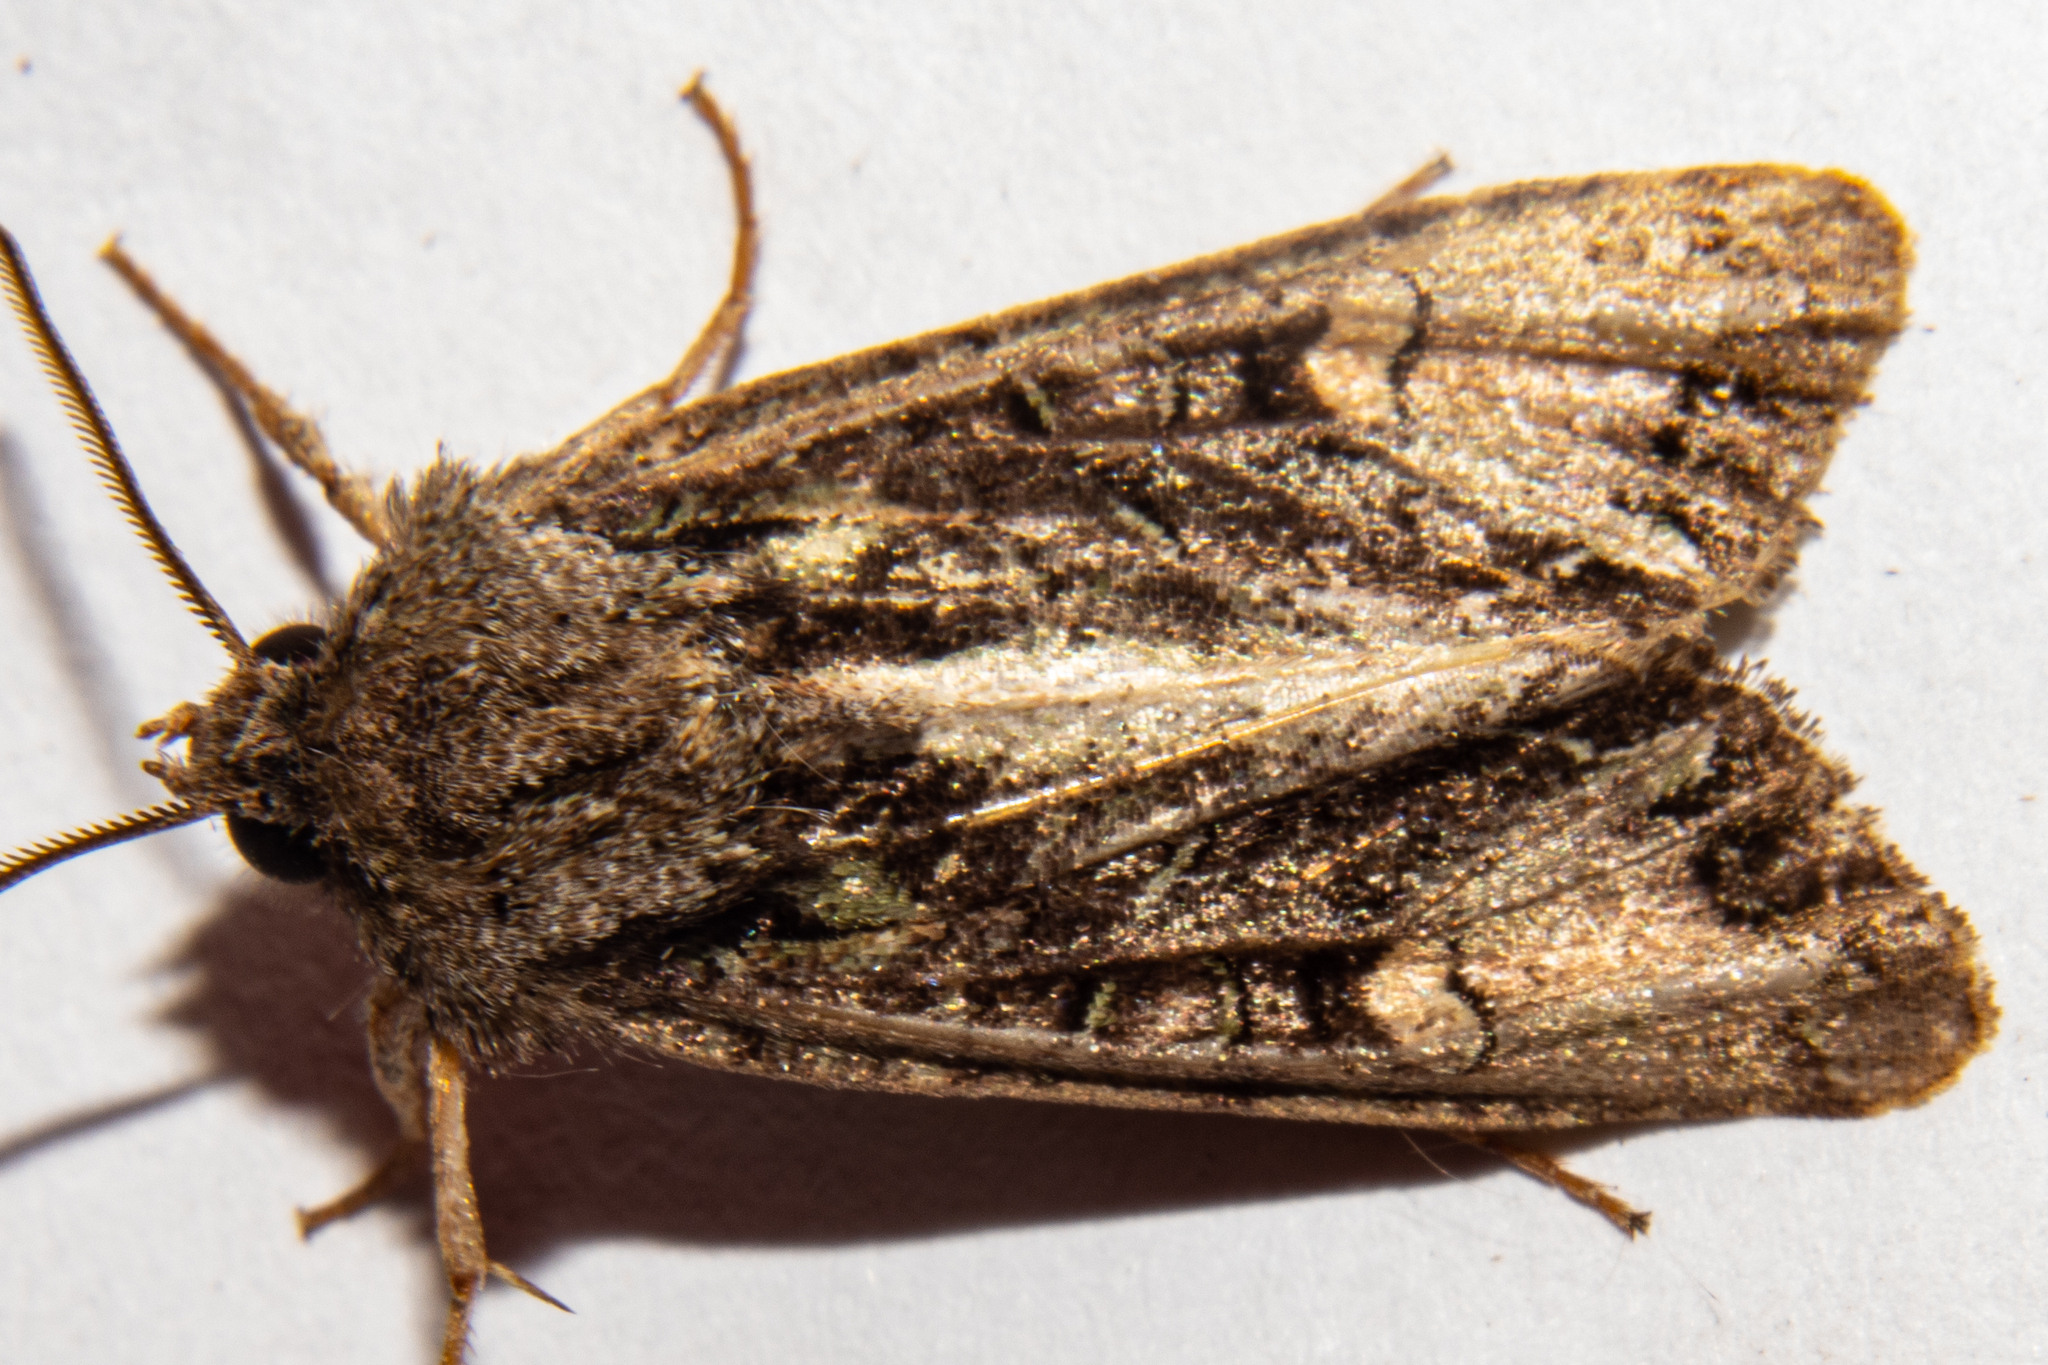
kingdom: Animalia
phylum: Arthropoda
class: Insecta
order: Lepidoptera
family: Noctuidae
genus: Ichneutica
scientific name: Ichneutica insignis
